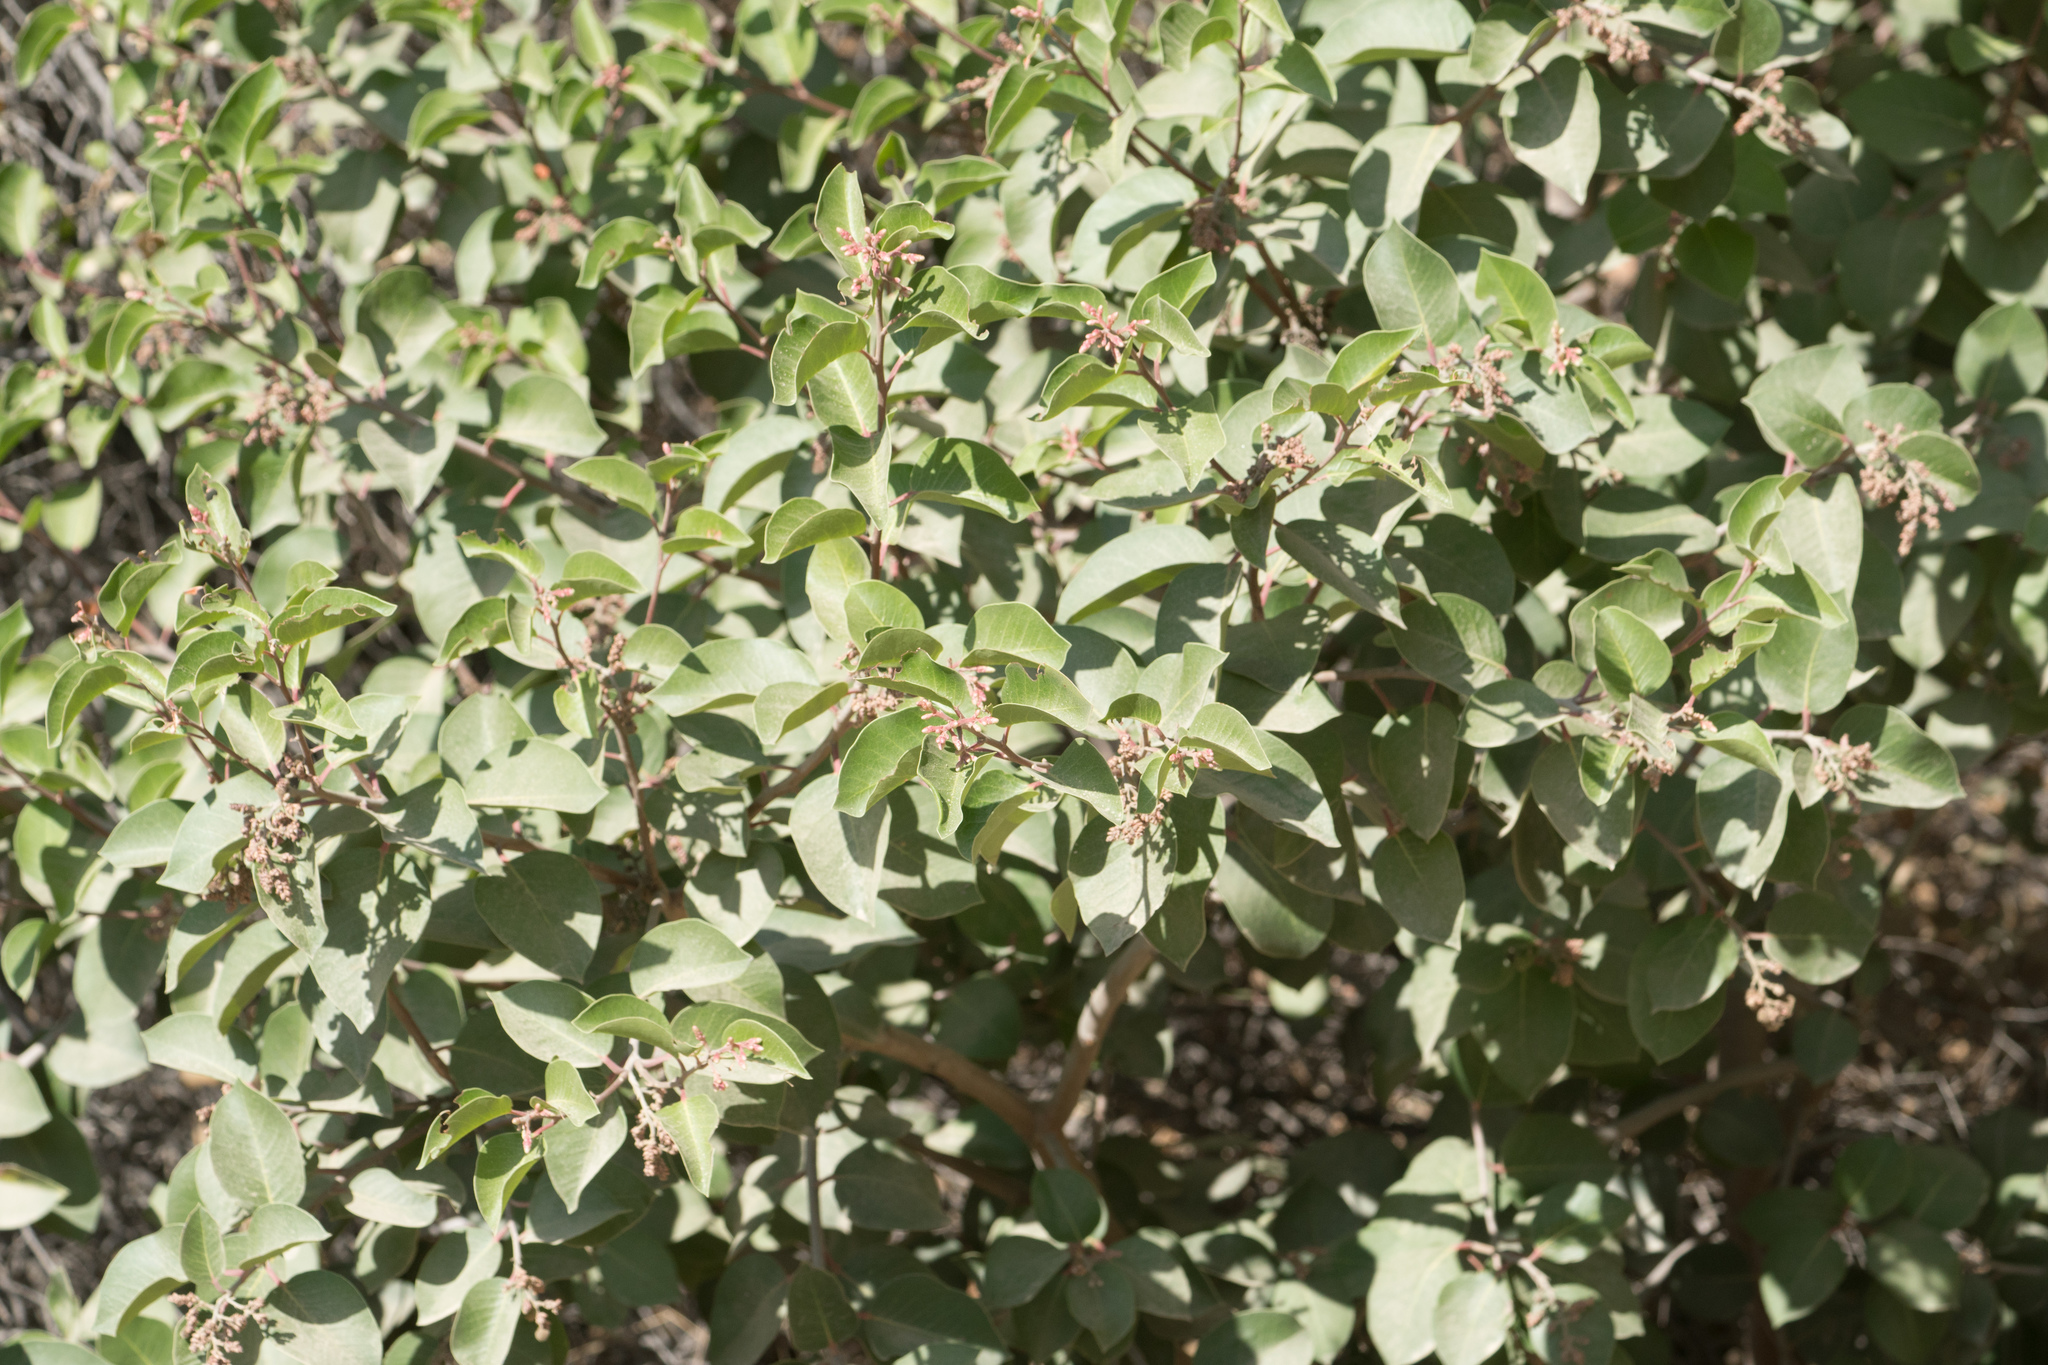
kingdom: Plantae
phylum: Tracheophyta
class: Magnoliopsida
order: Sapindales
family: Anacardiaceae
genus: Rhus
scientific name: Rhus ovata
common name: Sugar sumac
